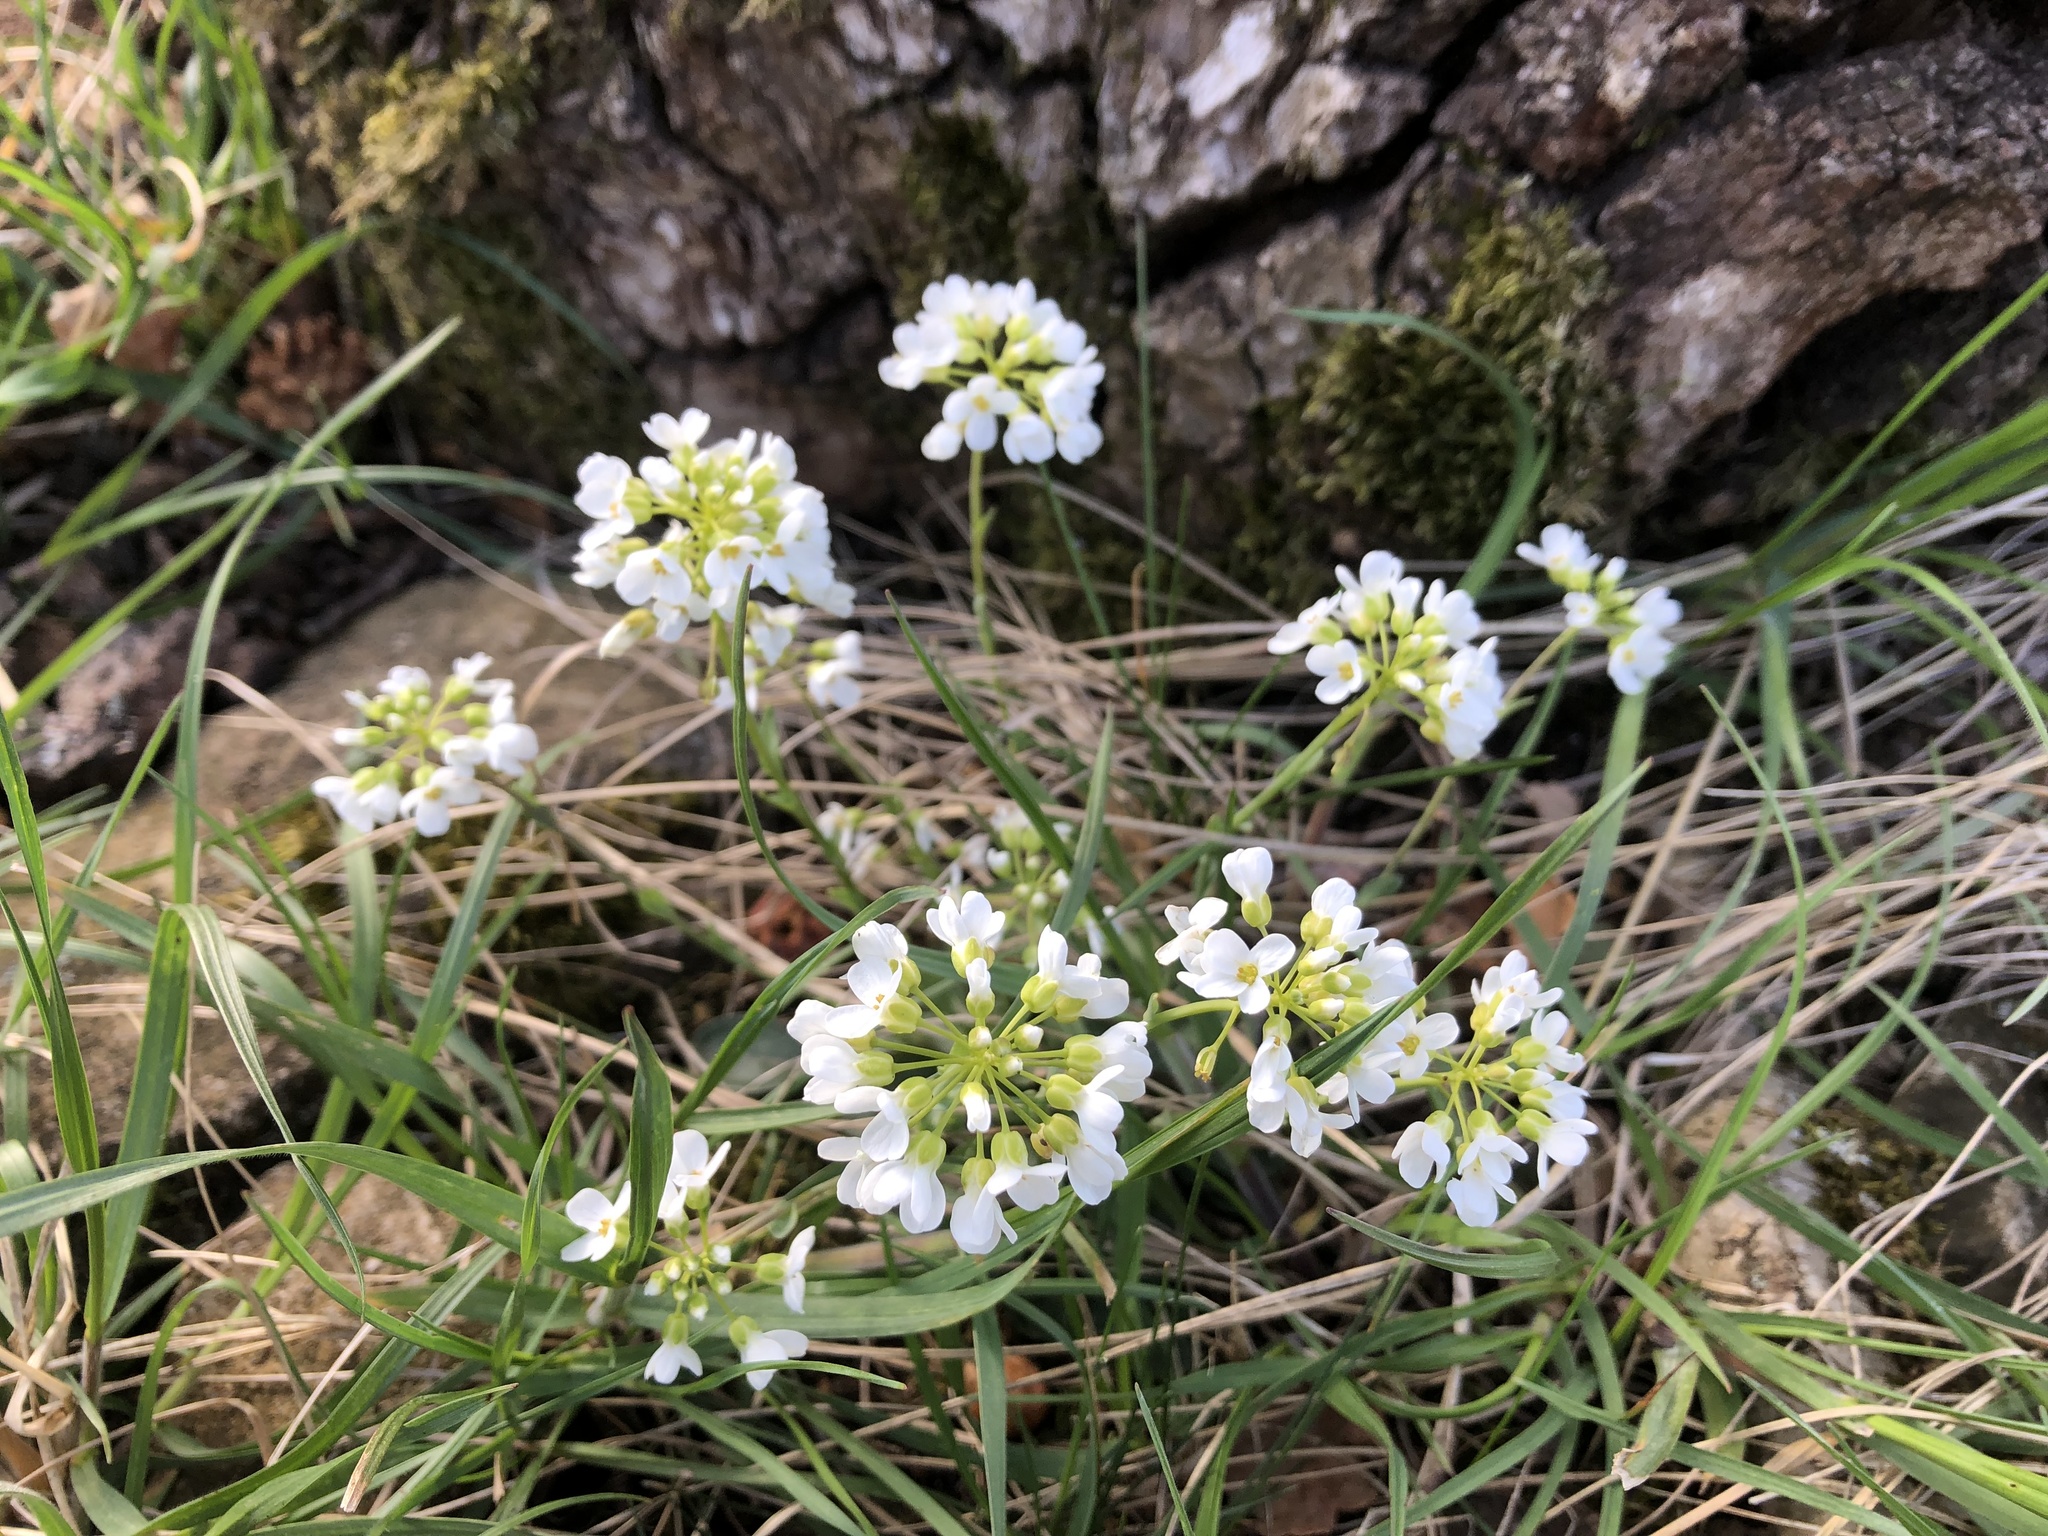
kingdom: Plantae
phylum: Tracheophyta
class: Magnoliopsida
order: Brassicales
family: Brassicaceae
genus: Noccaea
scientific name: Noccaea montana
